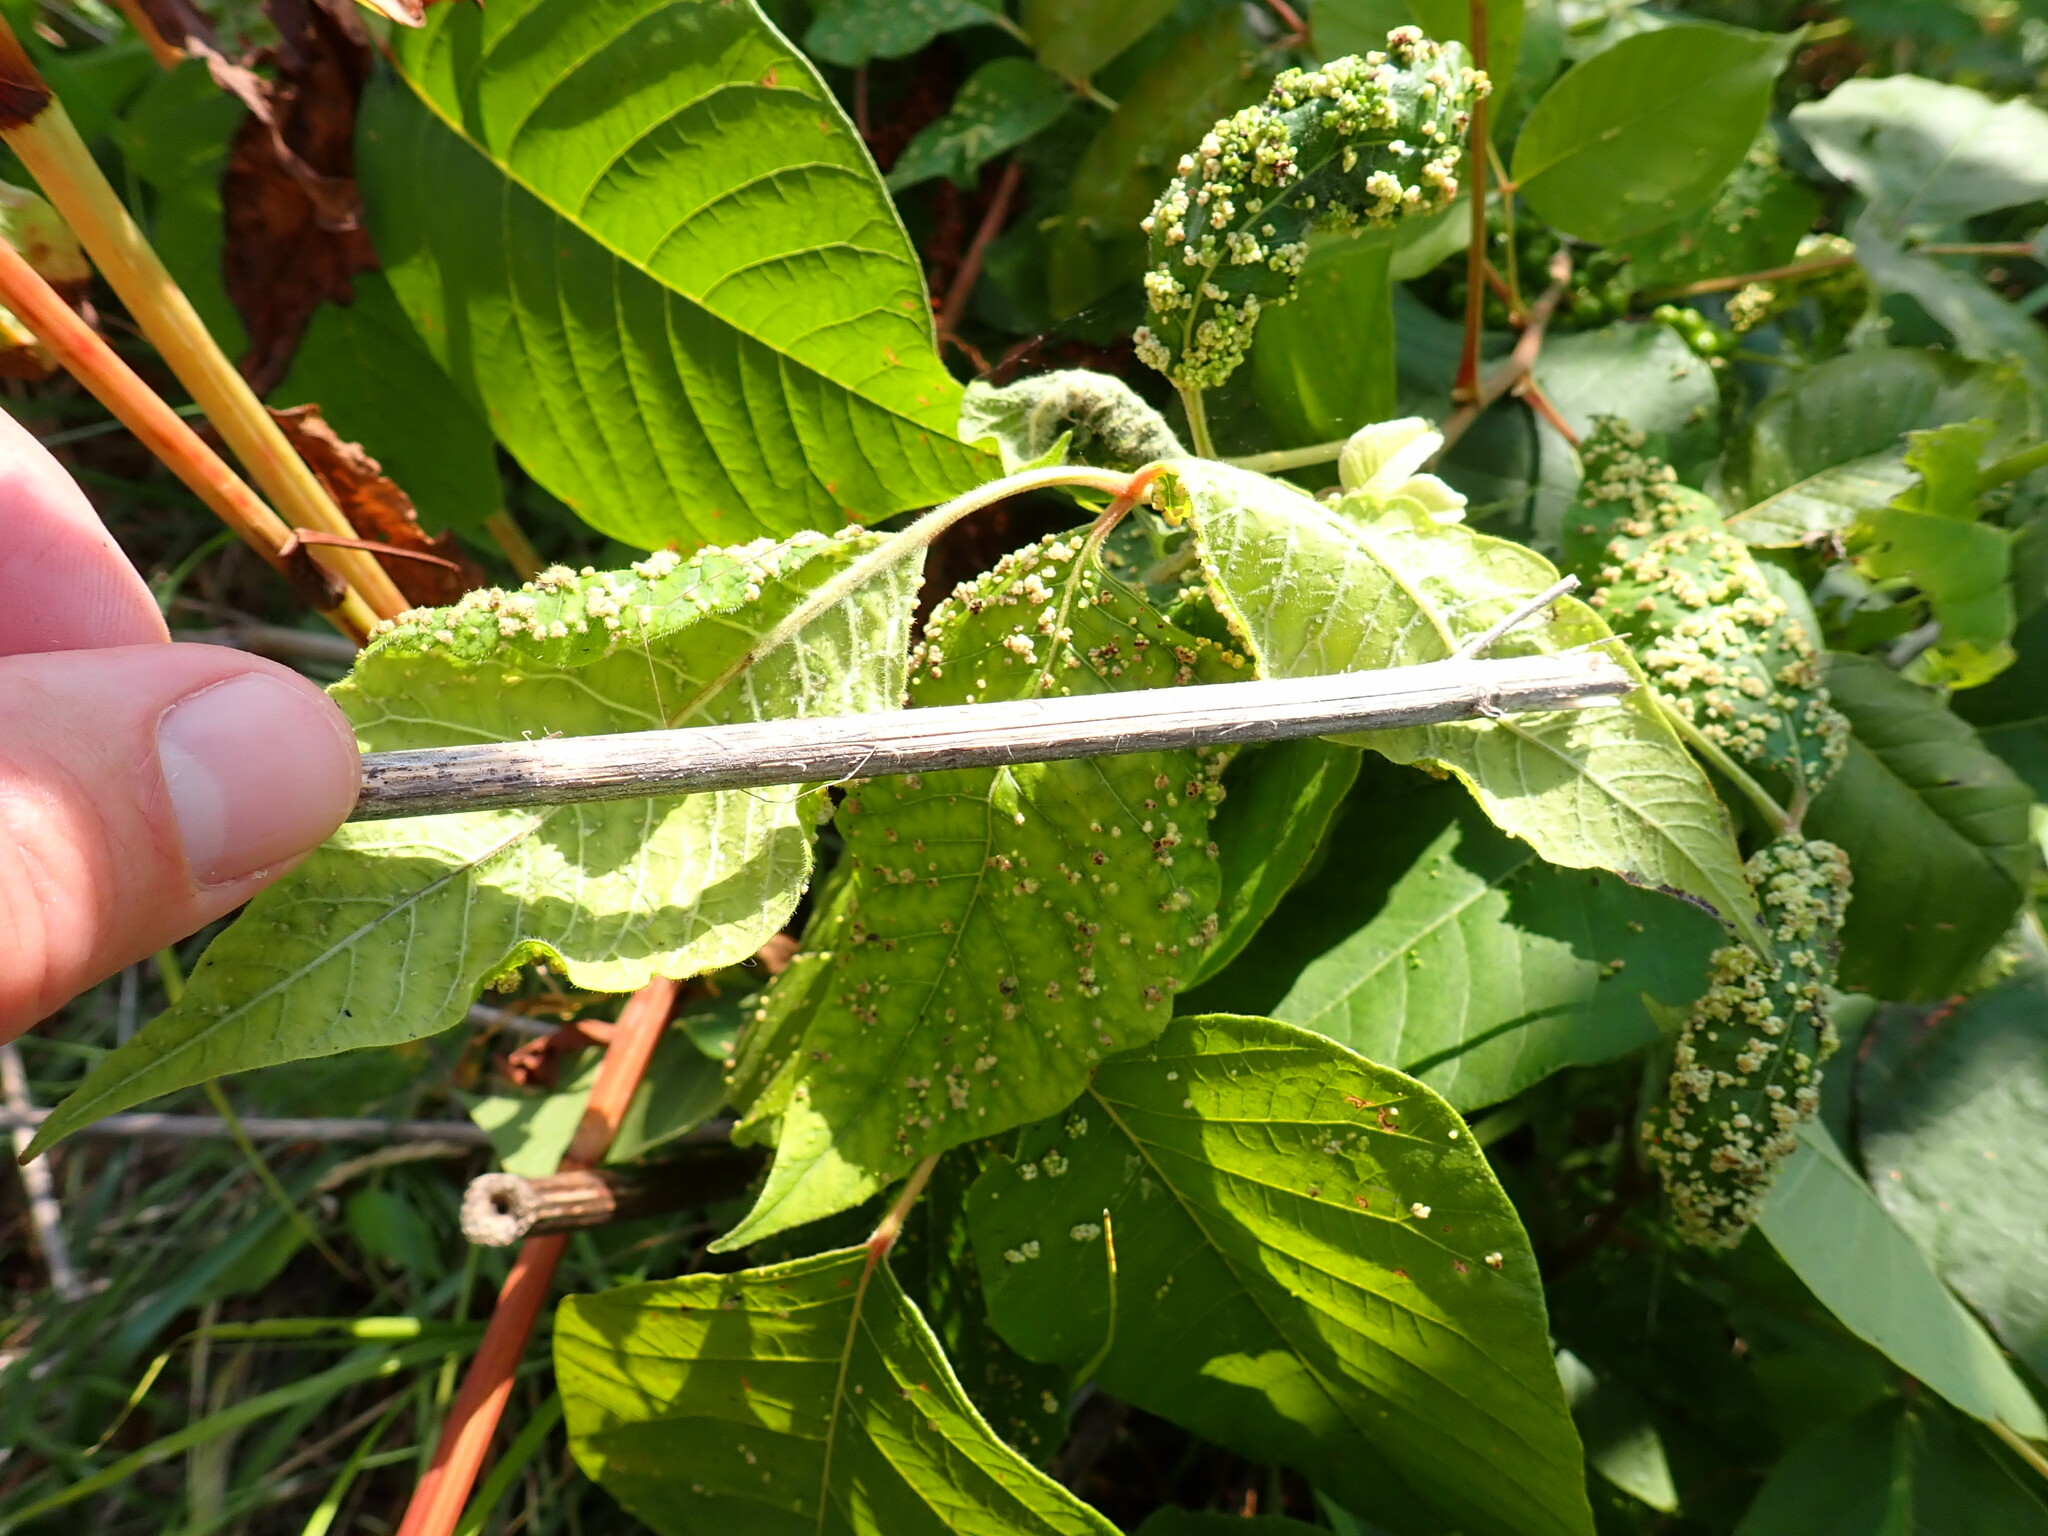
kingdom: Animalia
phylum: Arthropoda
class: Arachnida
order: Trombidiformes
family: Eriophyidae
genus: Aculops
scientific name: Aculops
